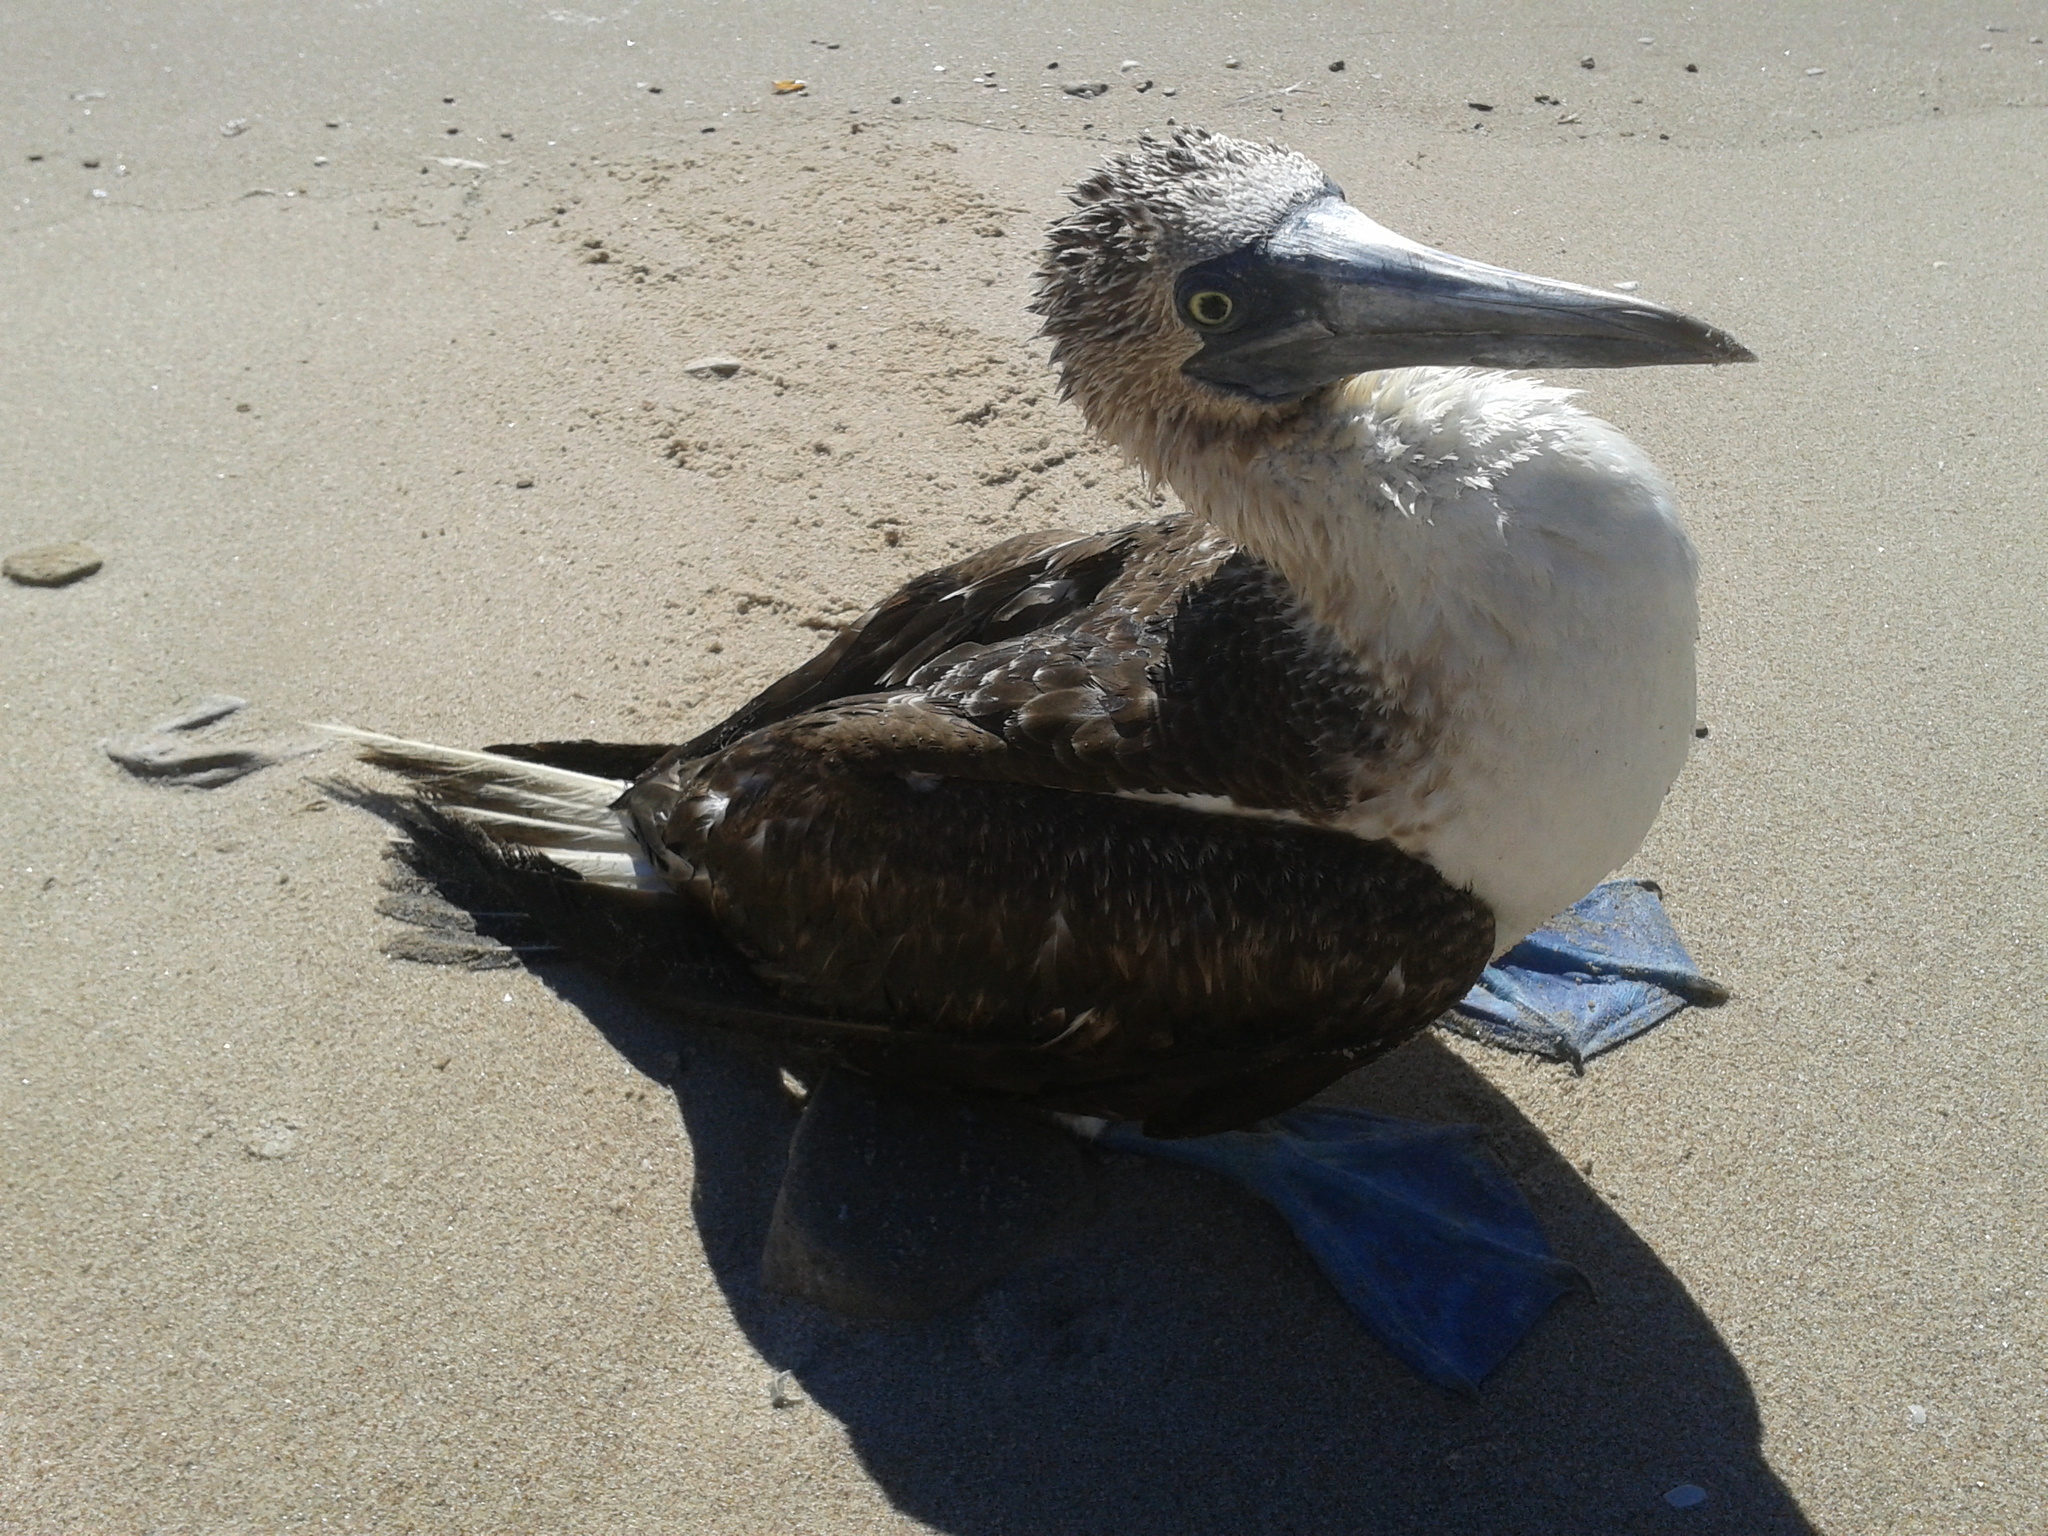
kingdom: Animalia
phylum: Chordata
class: Aves
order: Suliformes
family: Sulidae
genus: Sula
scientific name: Sula nebouxii
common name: Blue-footed booby
